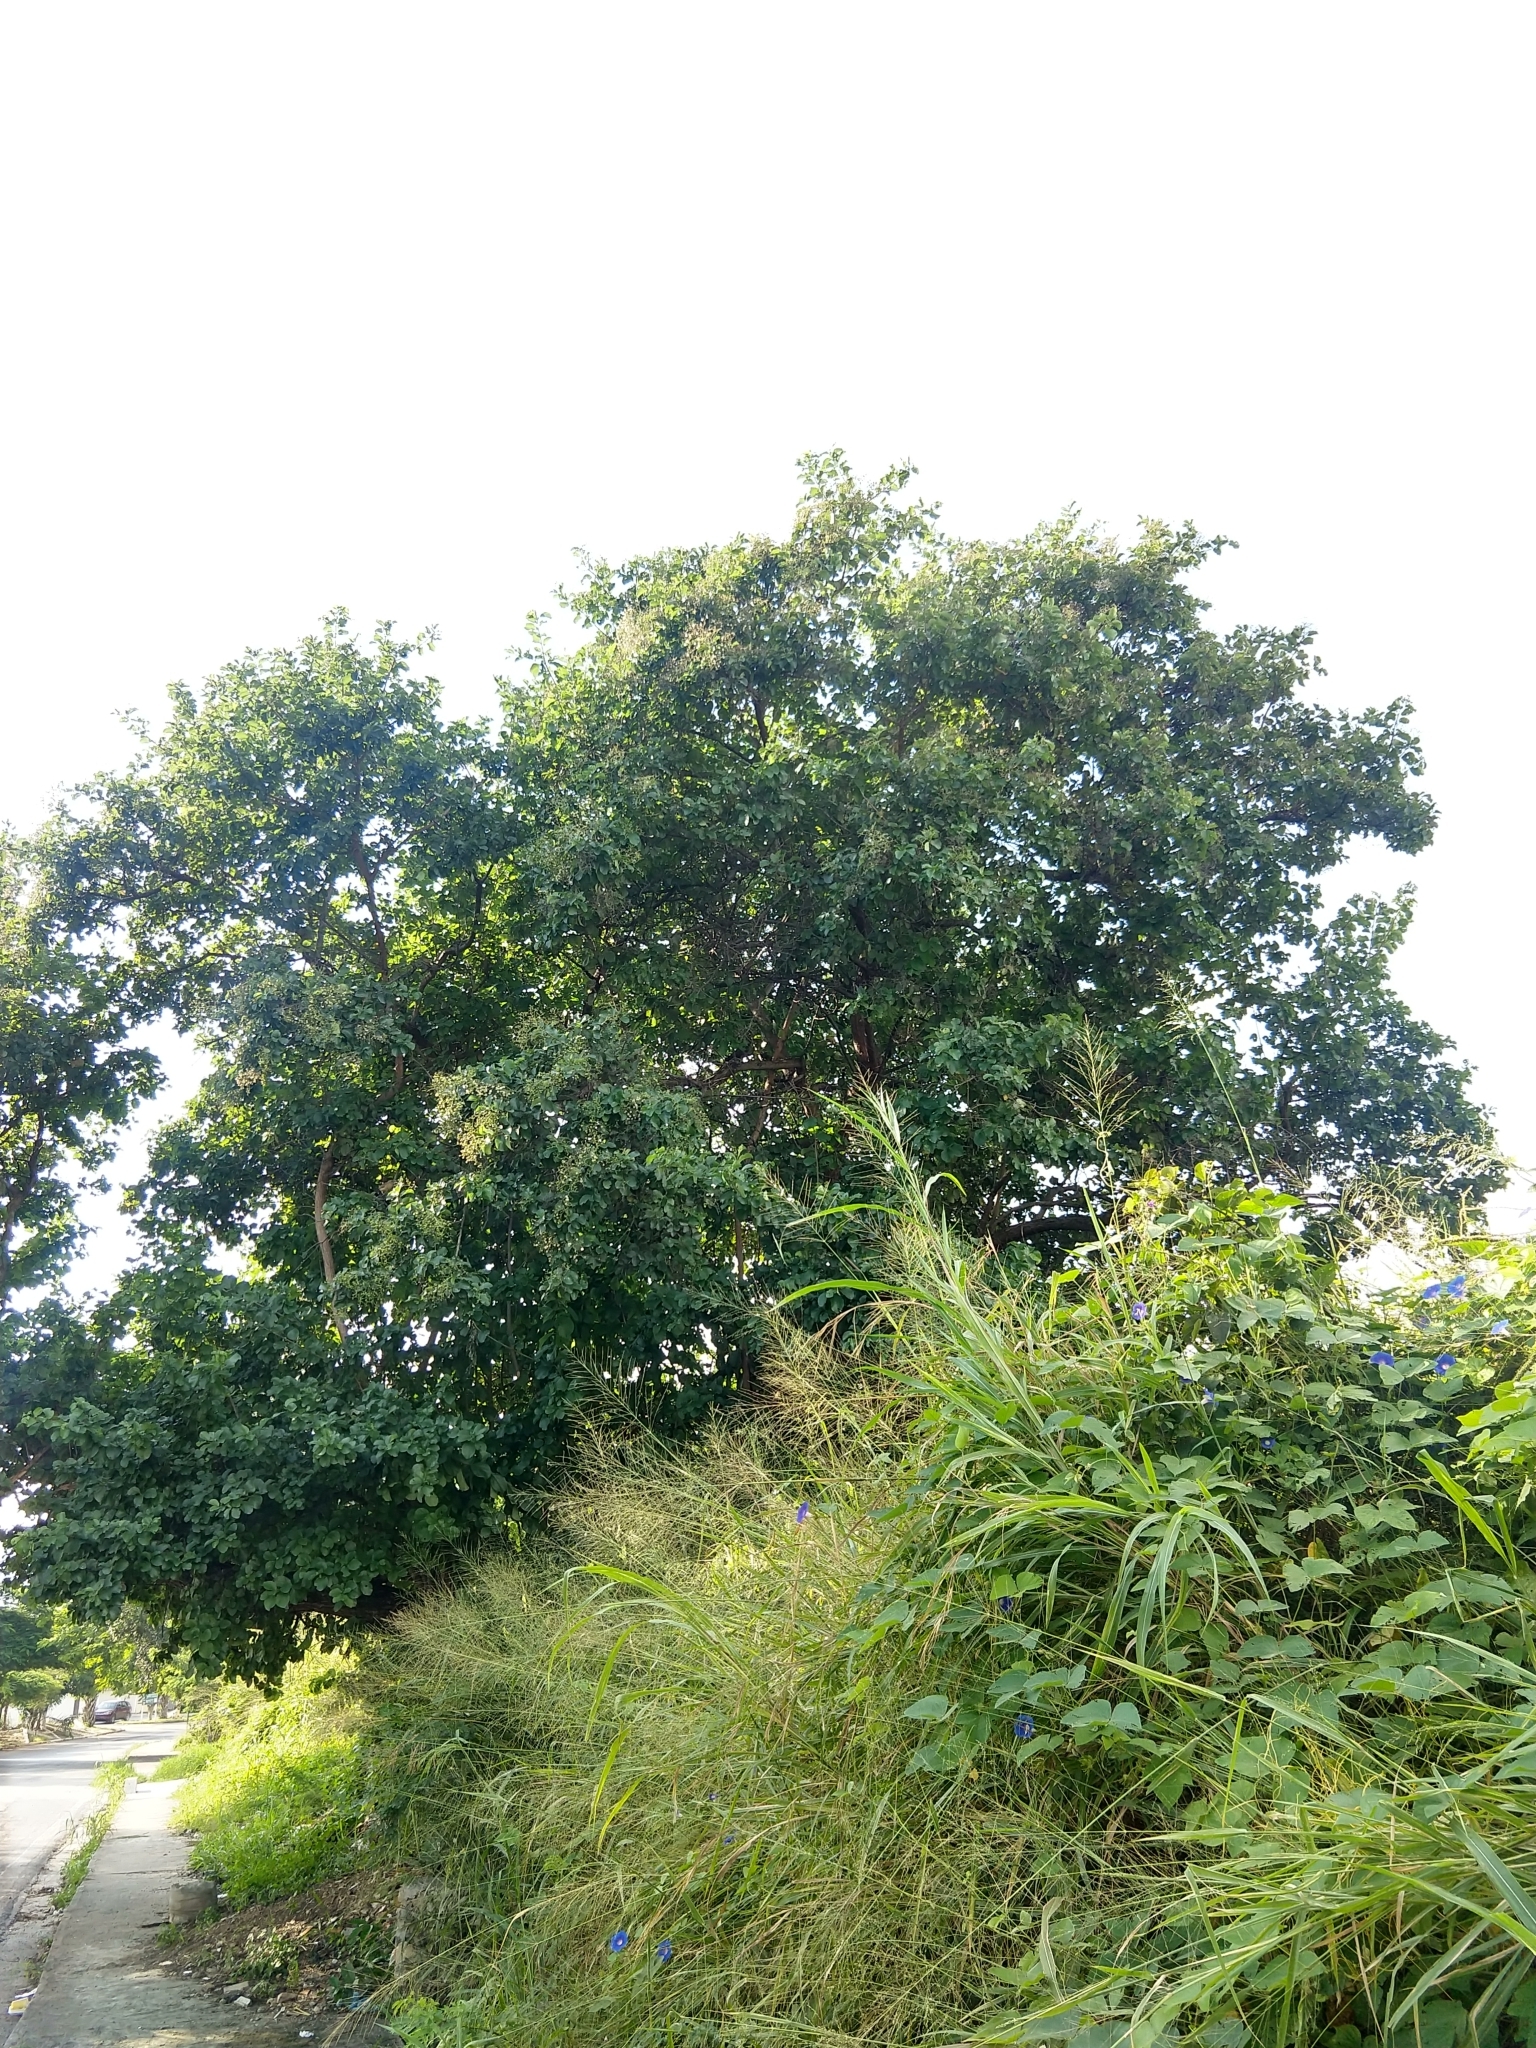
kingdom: Plantae
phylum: Tracheophyta
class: Magnoliopsida
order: Boraginales
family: Cordiaceae
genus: Cordia
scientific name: Cordia dentata
